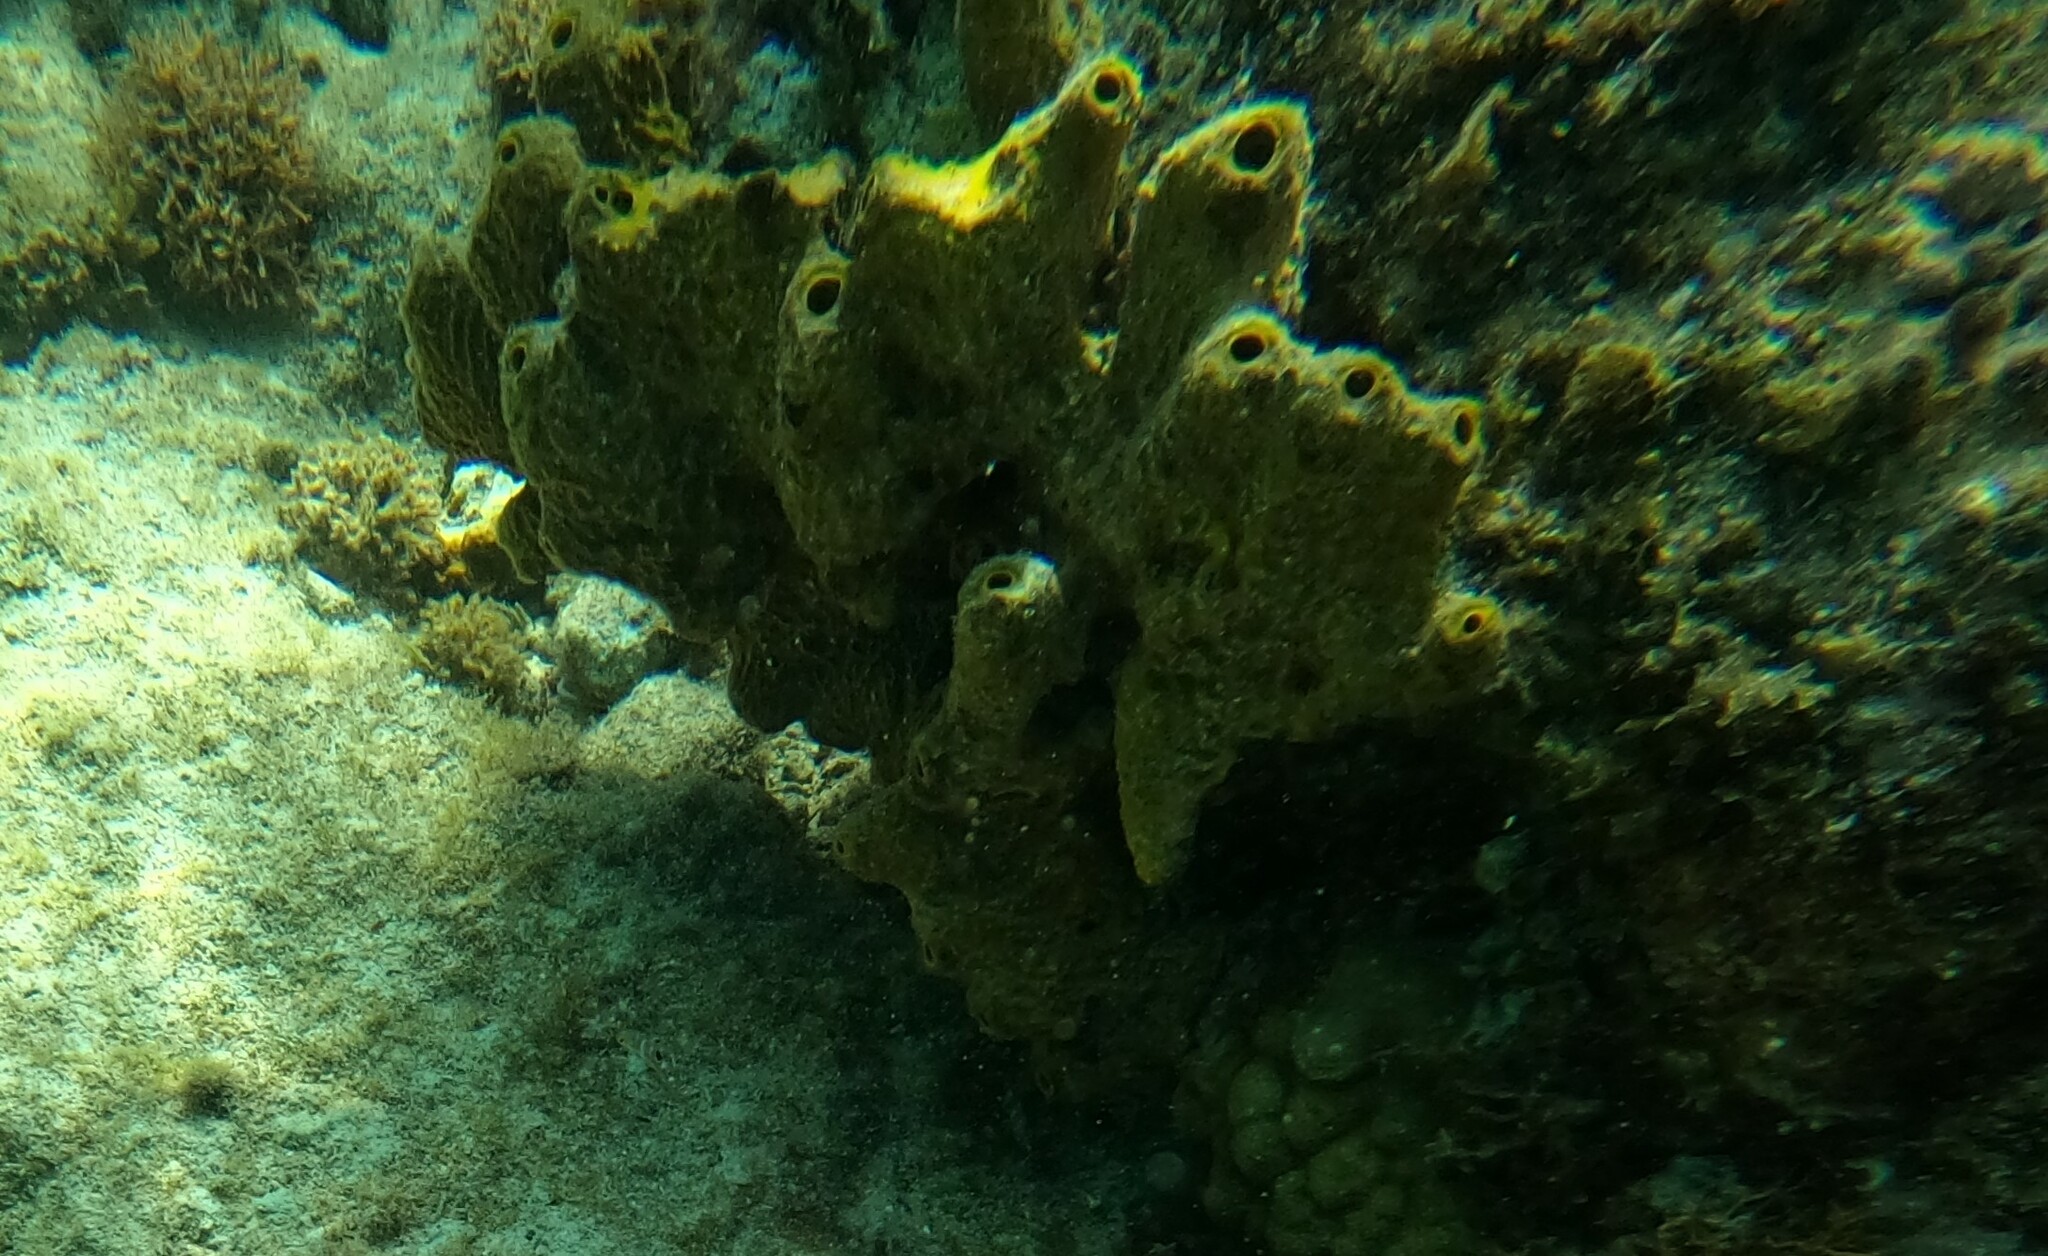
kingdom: Animalia
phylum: Porifera
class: Demospongiae
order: Verongiida
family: Aplysinidae
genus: Verongula
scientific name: Verongula rigida
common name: Pitted sponge
